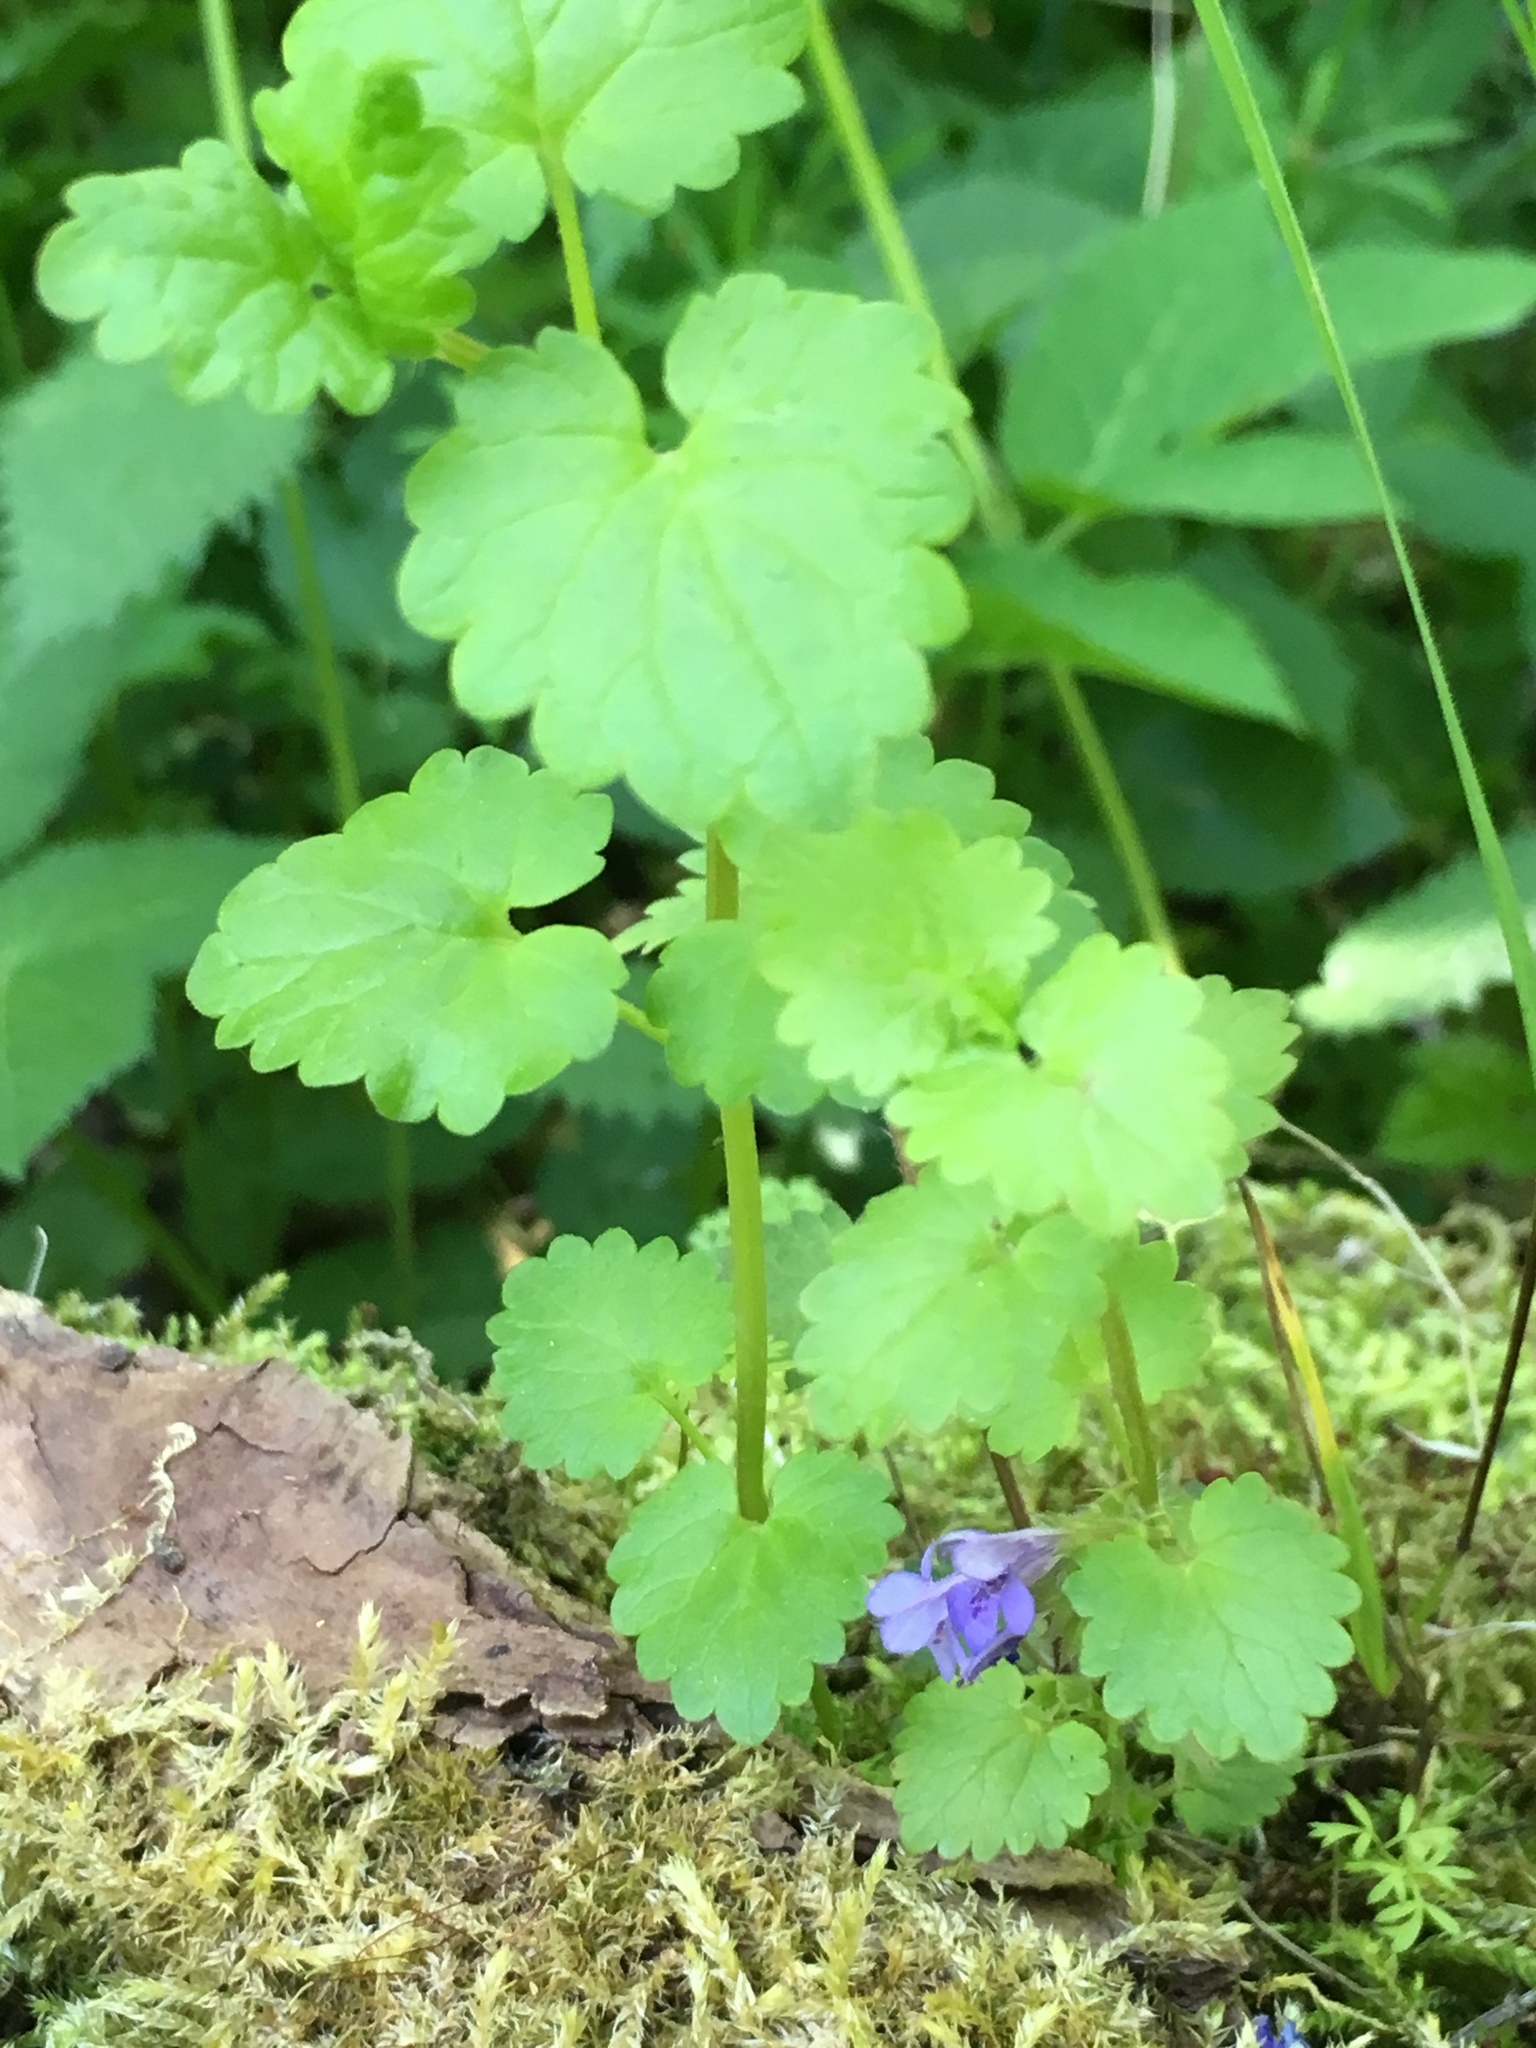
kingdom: Plantae
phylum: Tracheophyta
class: Magnoliopsida
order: Lamiales
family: Lamiaceae
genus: Glechoma
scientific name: Glechoma hederacea
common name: Ground ivy
